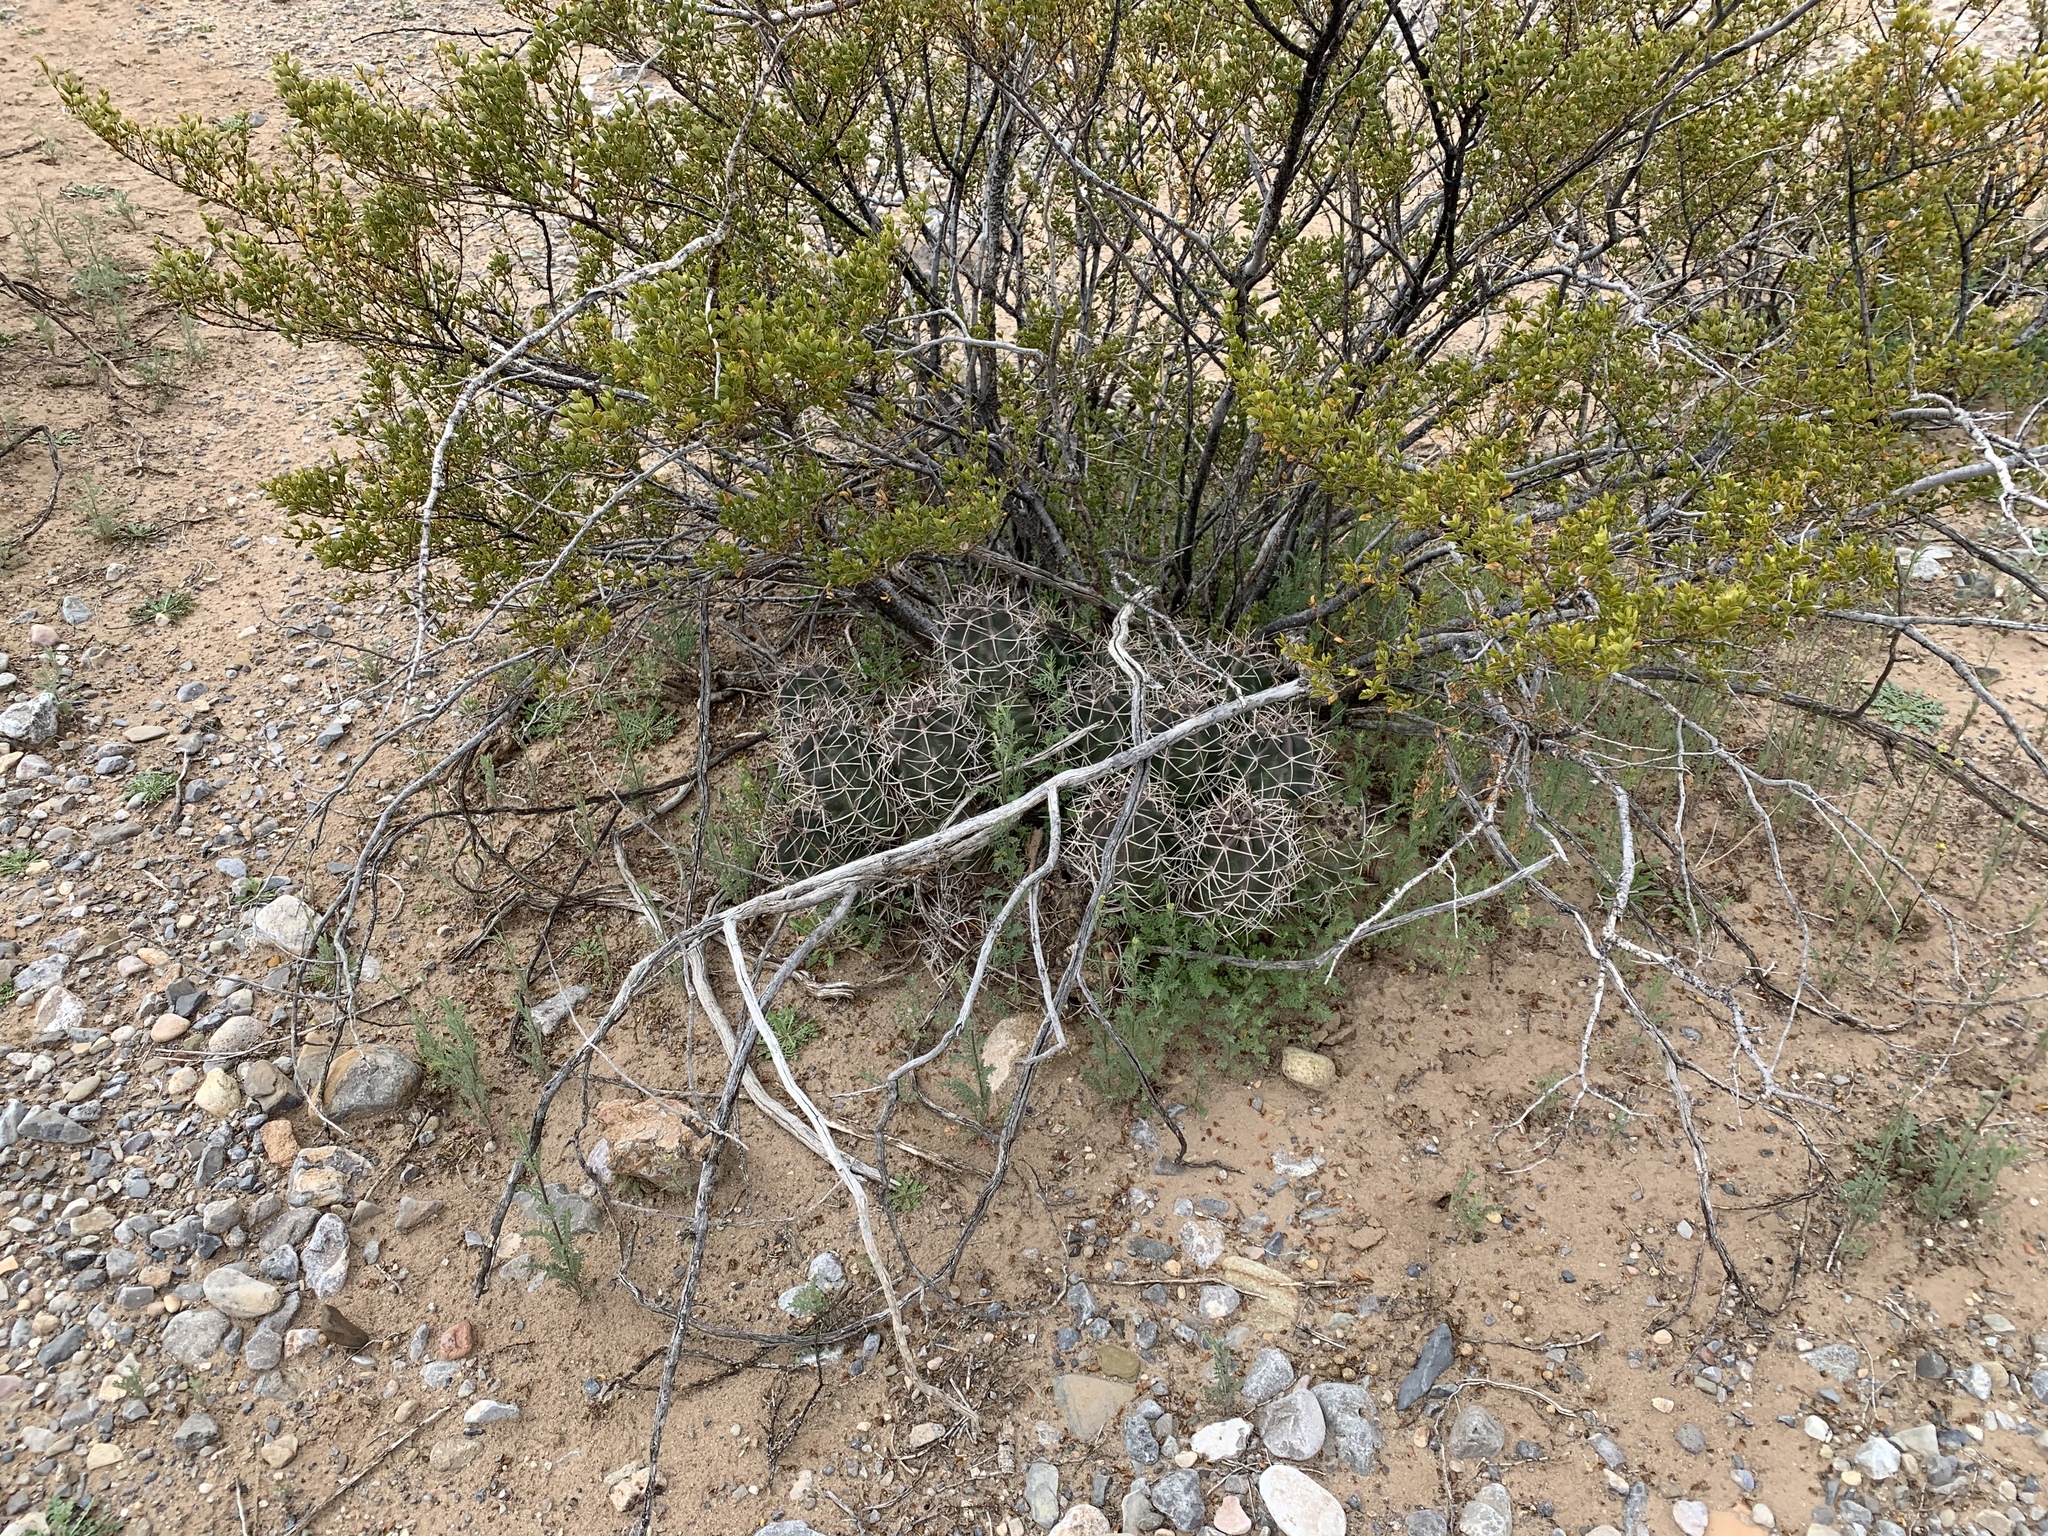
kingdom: Plantae
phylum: Tracheophyta
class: Magnoliopsida
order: Caryophyllales
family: Cactaceae
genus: Echinocereus
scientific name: Echinocereus triglochidiatus
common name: Claretcup hedgehog
